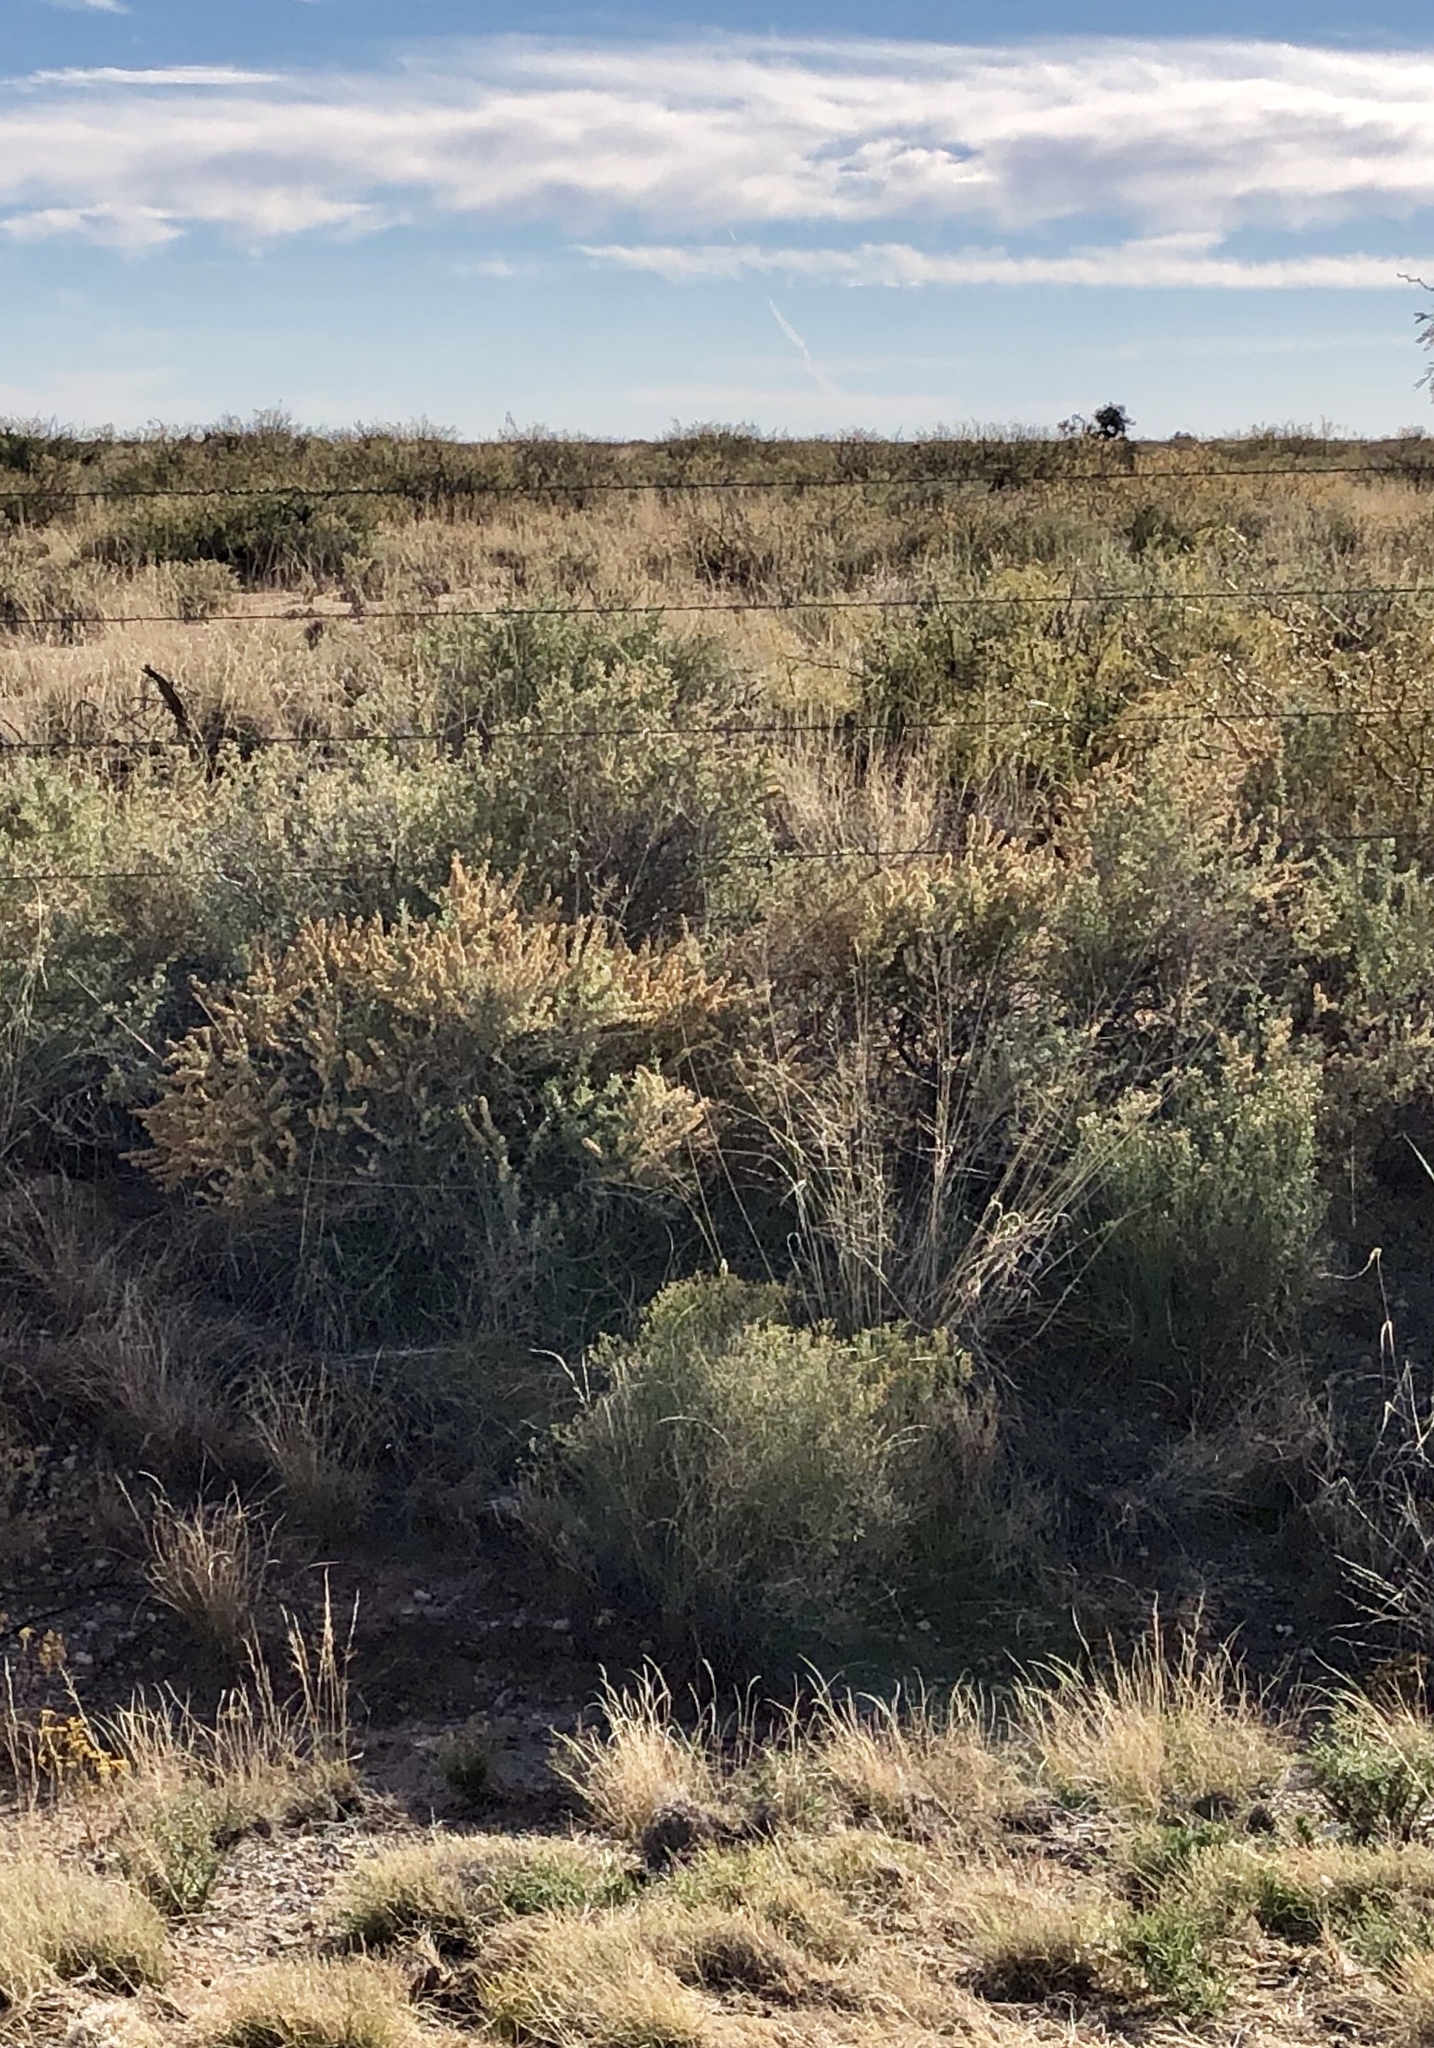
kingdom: Plantae
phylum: Tracheophyta
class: Magnoliopsida
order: Caryophyllales
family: Amaranthaceae
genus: Atriplex
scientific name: Atriplex canescens
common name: Four-wing saltbush
